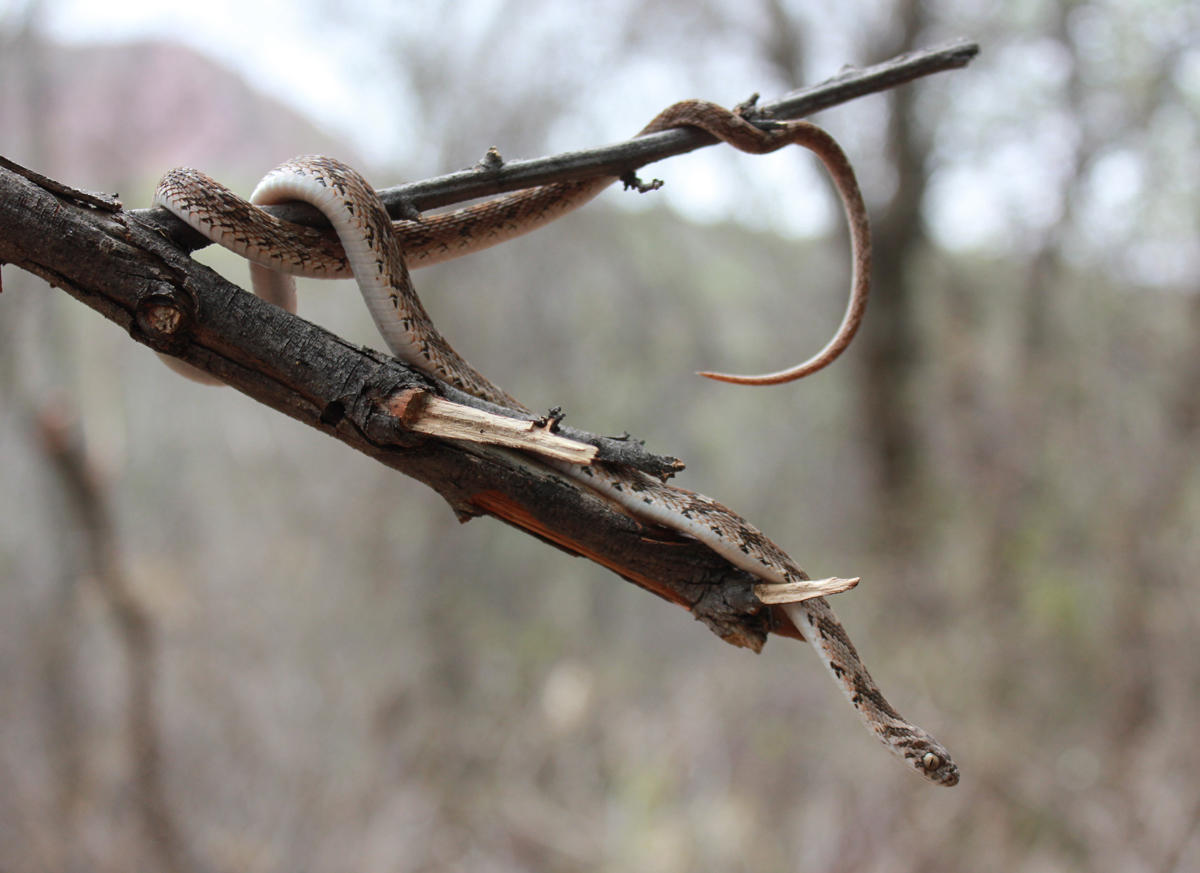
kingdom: Animalia
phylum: Chordata
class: Squamata
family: Colubridae
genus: Dasypeltis
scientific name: Dasypeltis scabra
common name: Common egg eater
